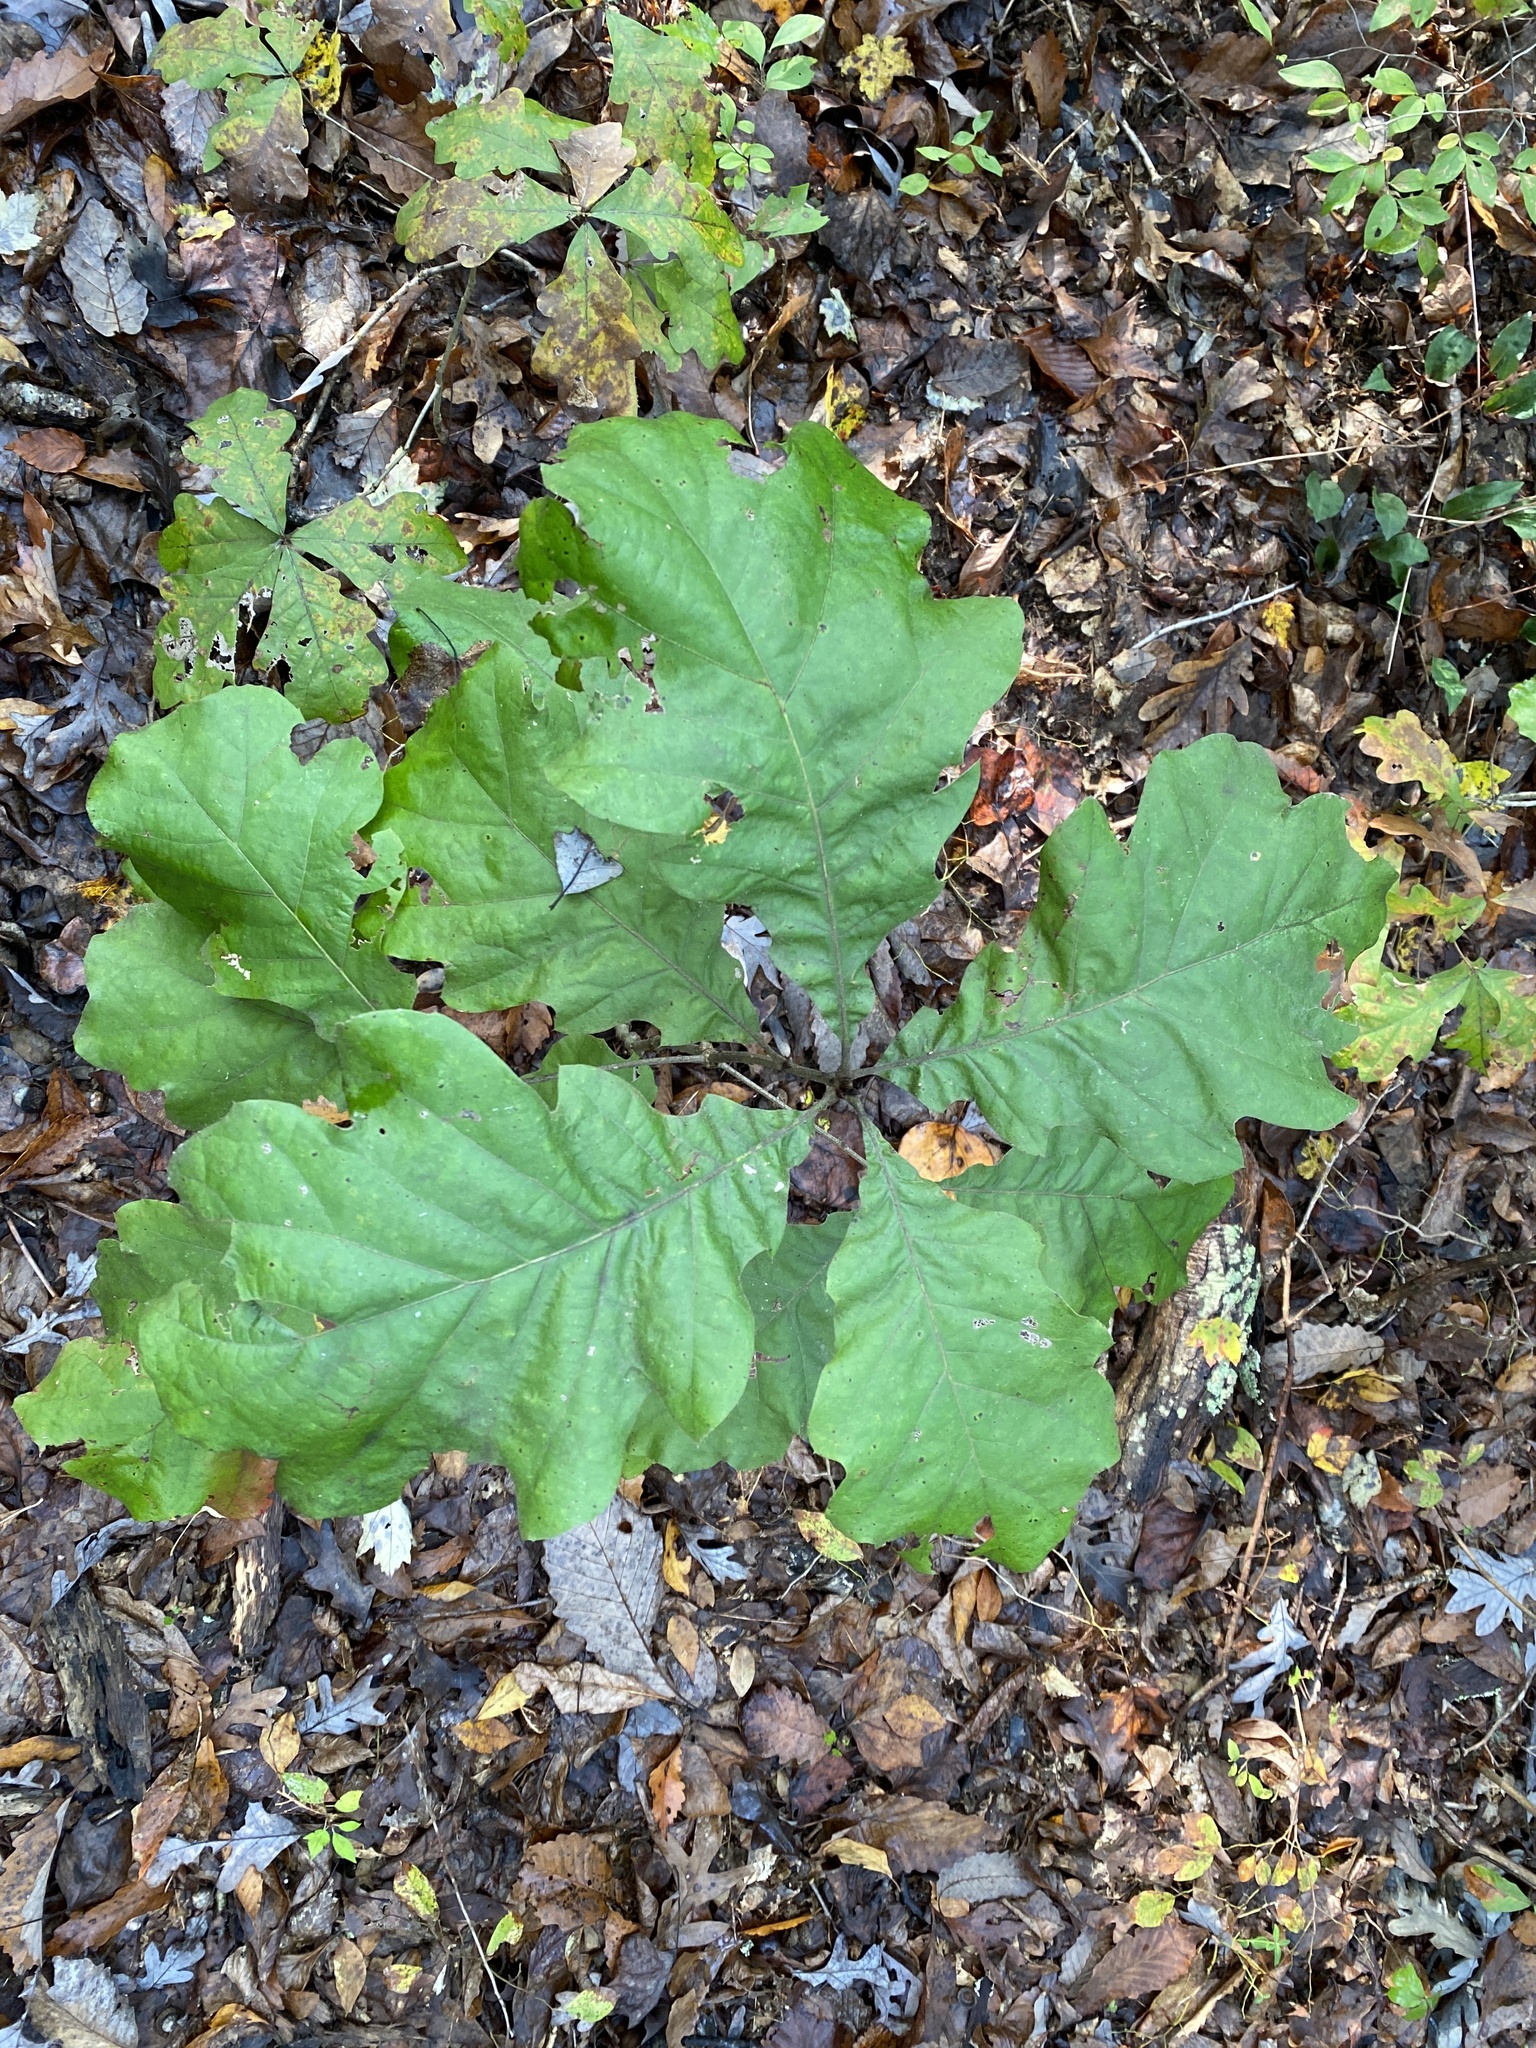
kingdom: Plantae
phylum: Tracheophyta
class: Magnoliopsida
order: Fagales
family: Fagaceae
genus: Quercus
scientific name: Quercus velutina
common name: Black oak
